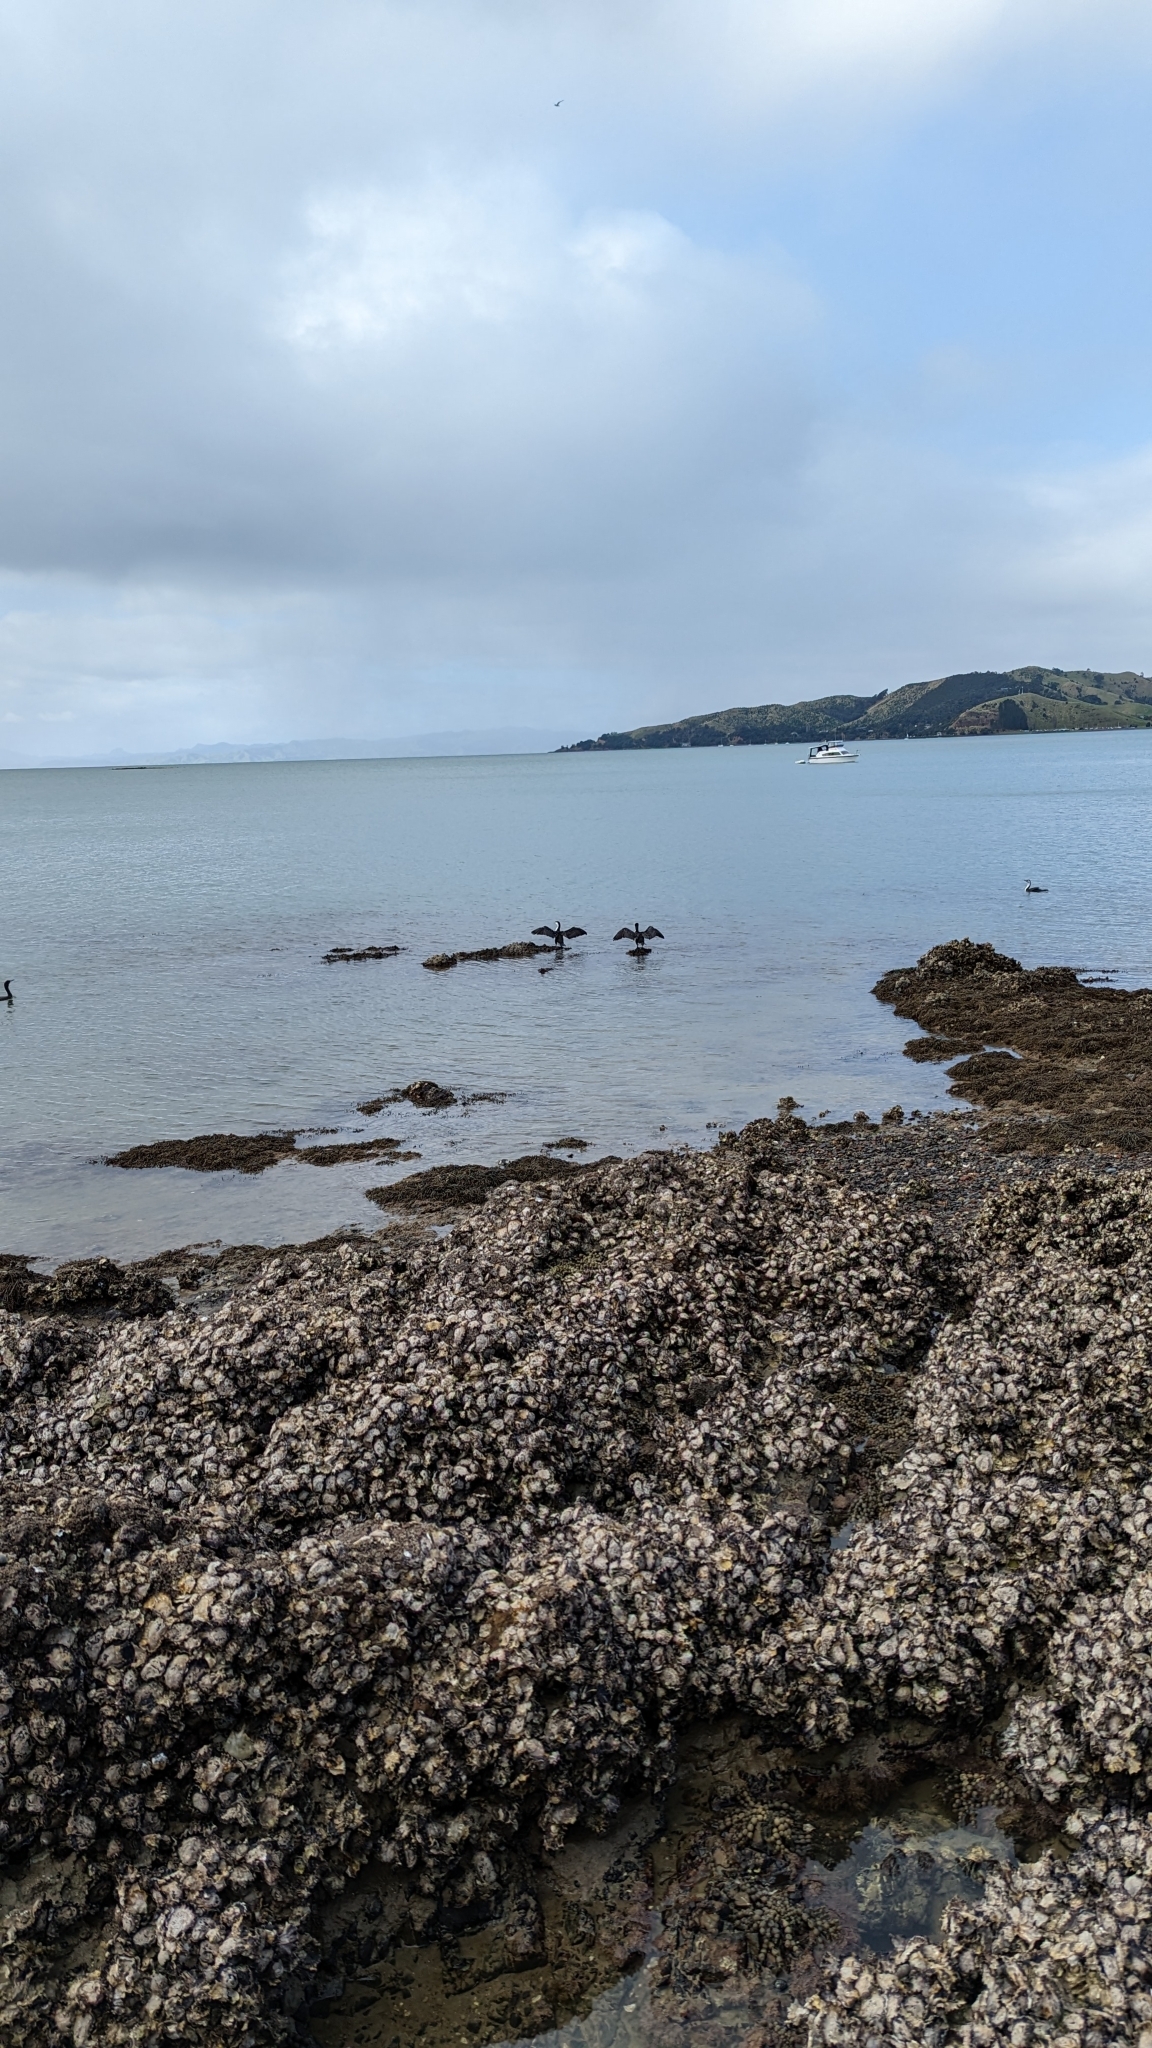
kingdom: Animalia
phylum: Chordata
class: Aves
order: Suliformes
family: Phalacrocoracidae
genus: Phalacrocorax
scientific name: Phalacrocorax varius
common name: Pied cormorant
